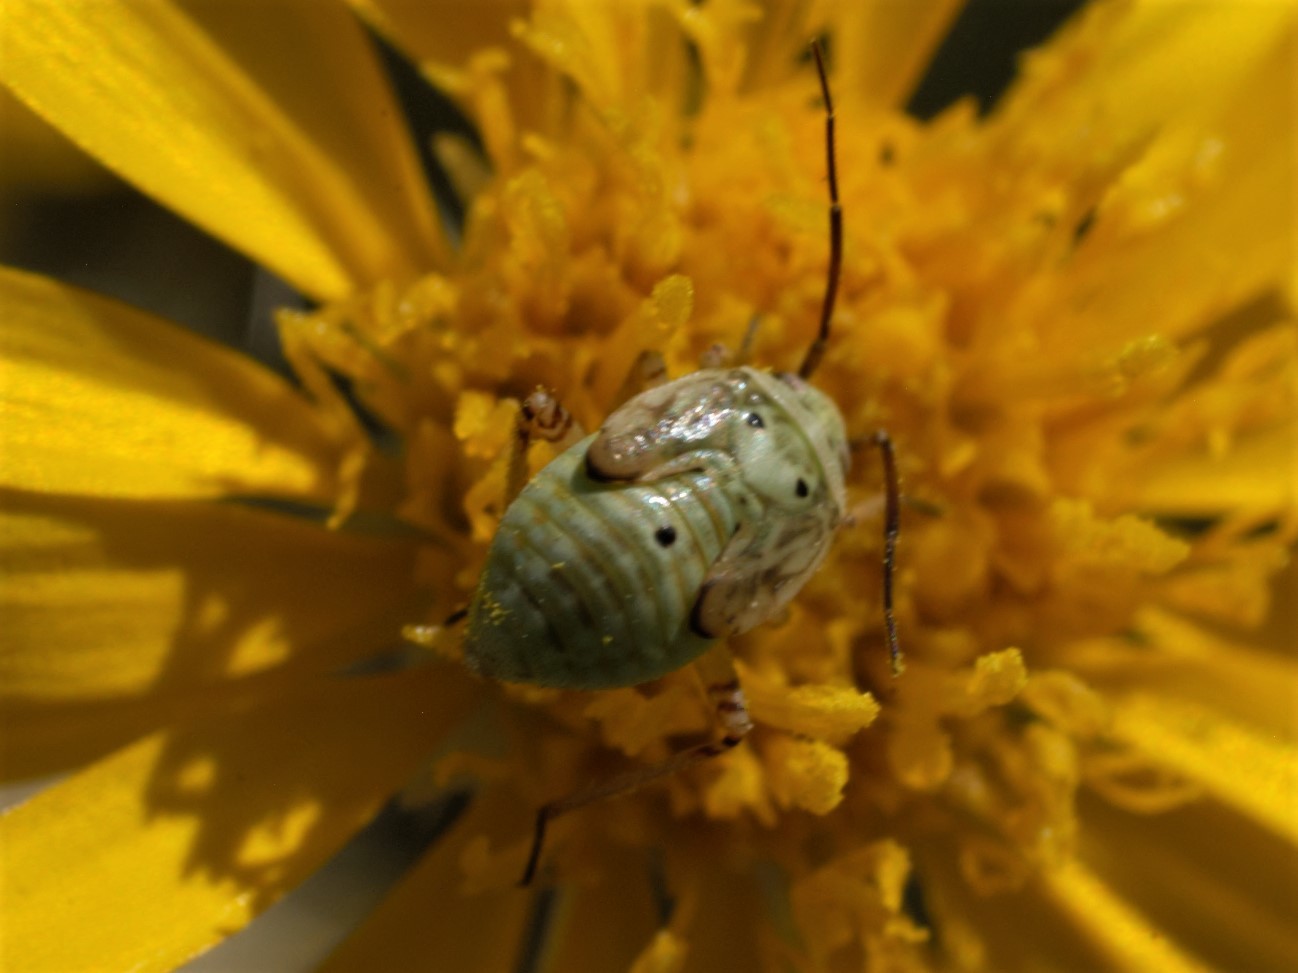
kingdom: Animalia
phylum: Arthropoda
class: Insecta
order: Hemiptera
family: Miridae
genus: Lygus
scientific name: Lygus
